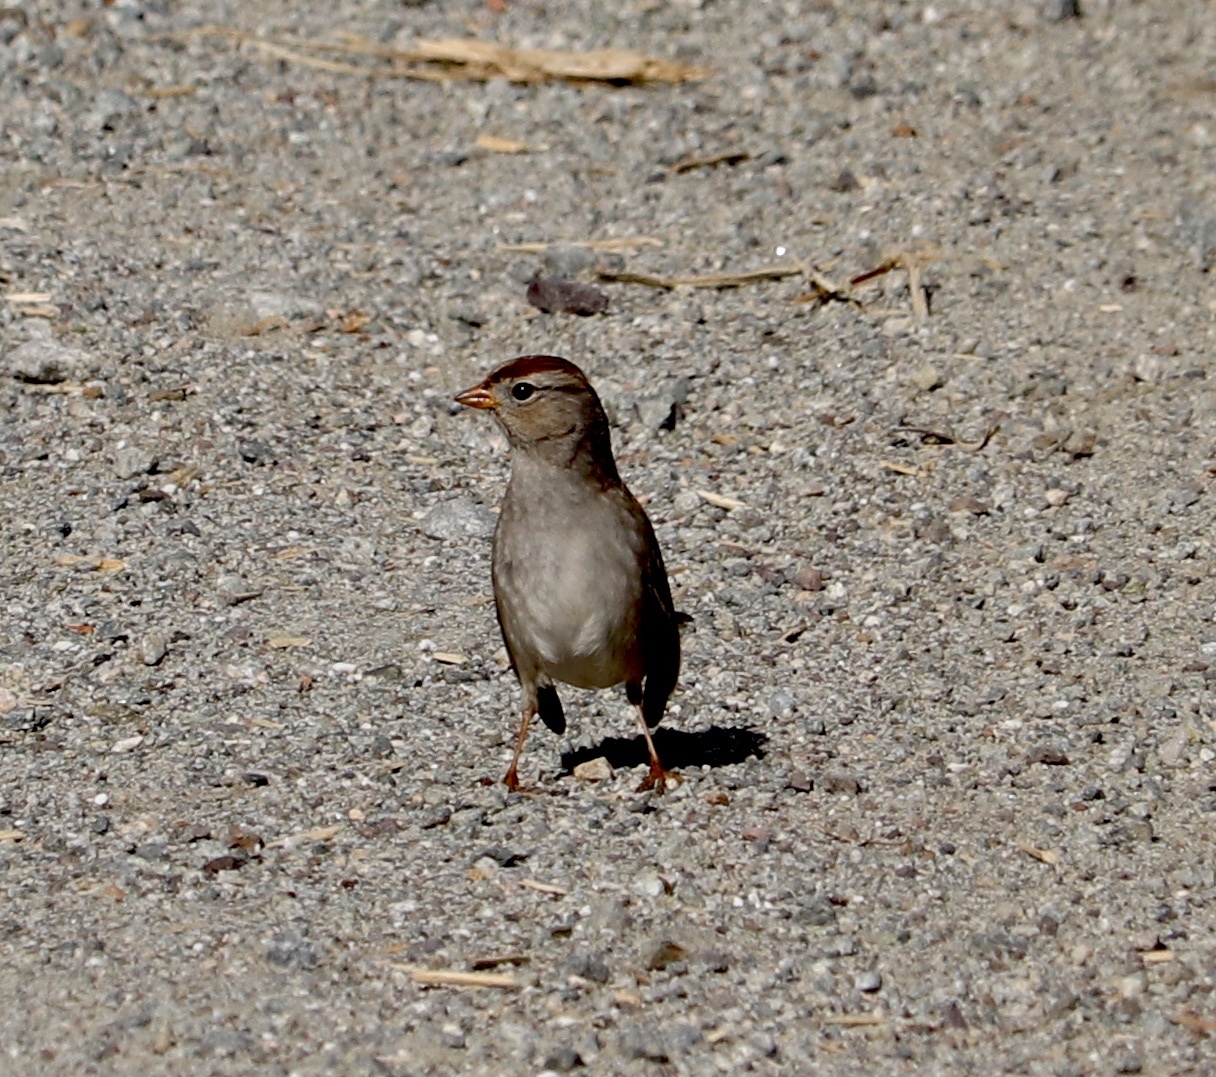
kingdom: Animalia
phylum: Chordata
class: Aves
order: Passeriformes
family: Passerellidae
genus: Zonotrichia
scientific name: Zonotrichia leucophrys
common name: White-crowned sparrow
